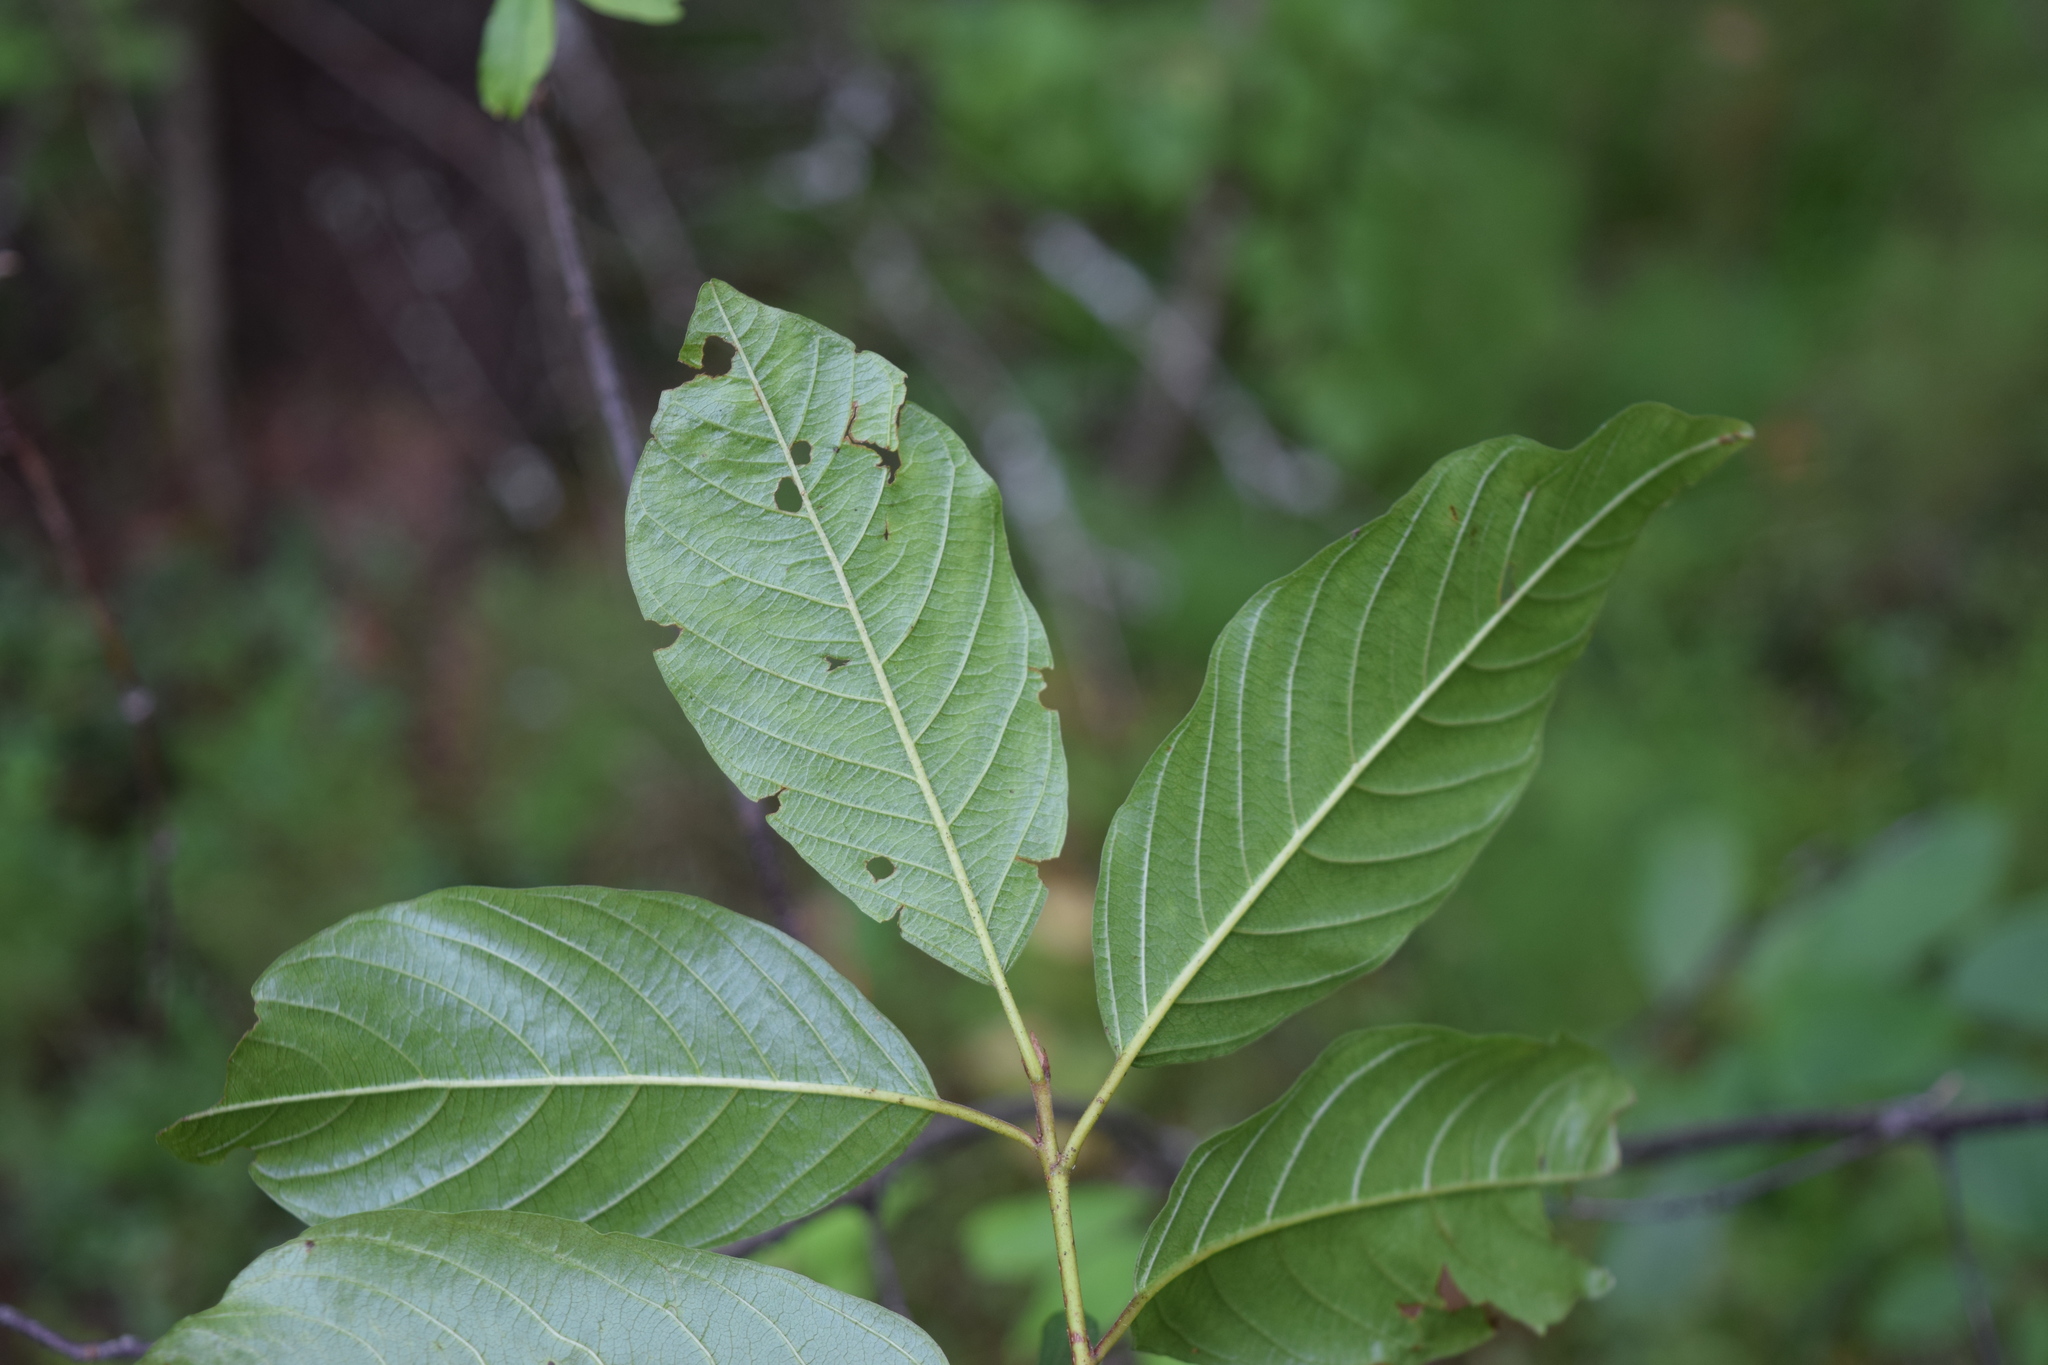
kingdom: Plantae
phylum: Tracheophyta
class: Magnoliopsida
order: Rosales
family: Rhamnaceae
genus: Frangula
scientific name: Frangula alnus
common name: Alder buckthorn
